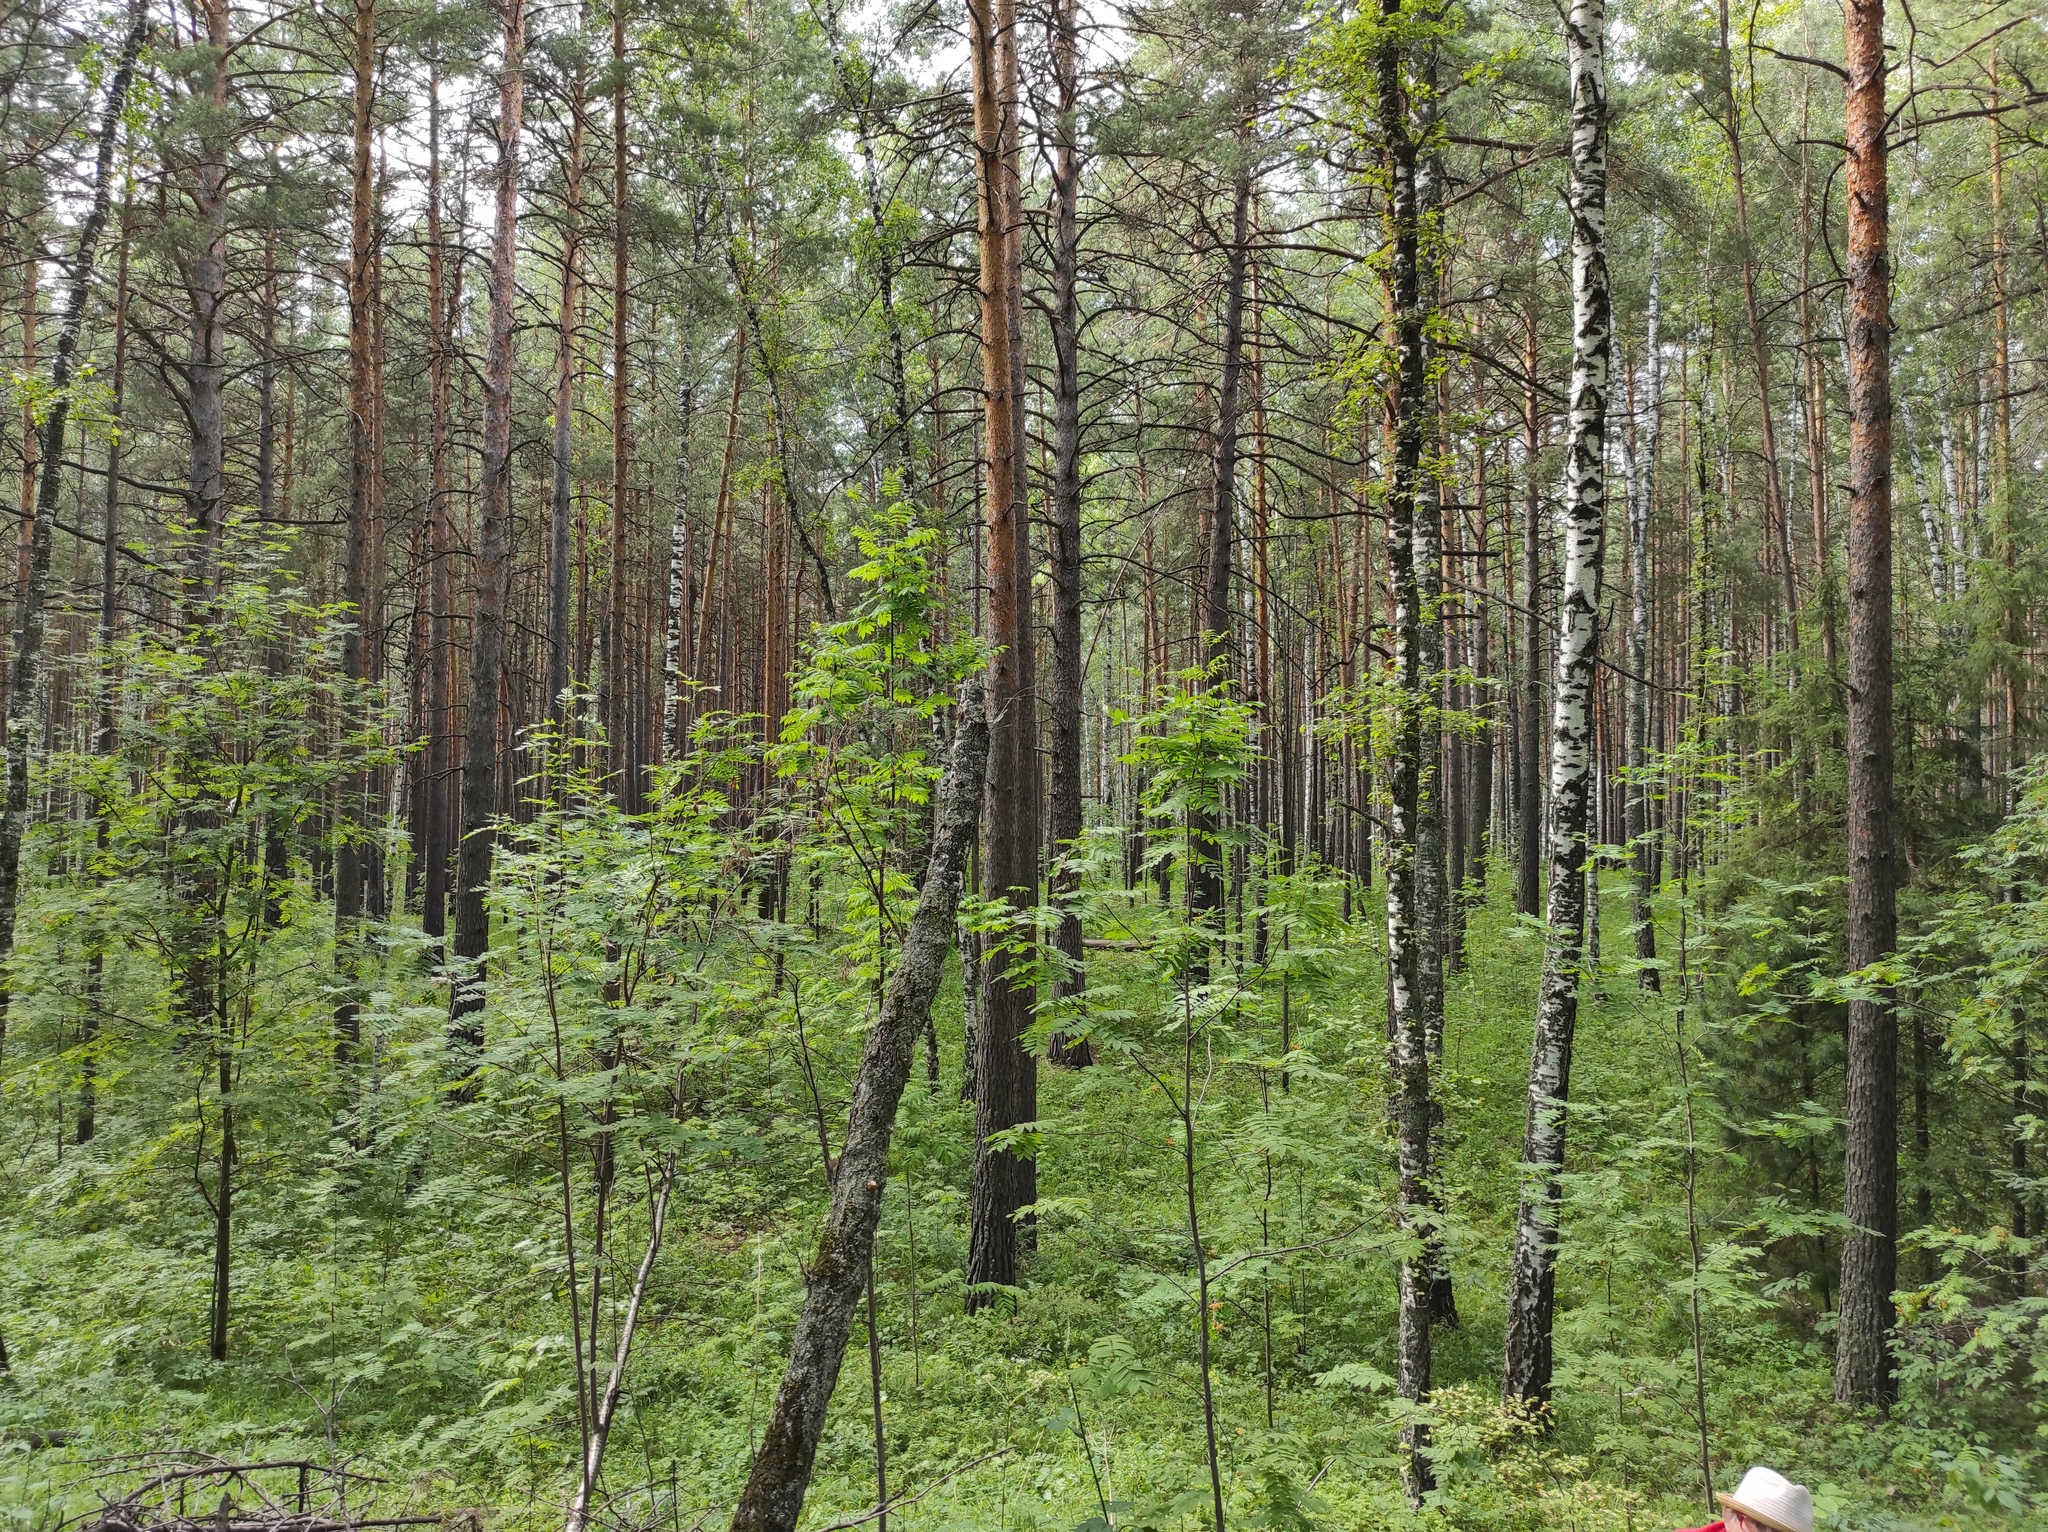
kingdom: Plantae
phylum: Tracheophyta
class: Pinopsida
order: Pinales
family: Pinaceae
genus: Pinus
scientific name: Pinus sylvestris
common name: Scots pine
